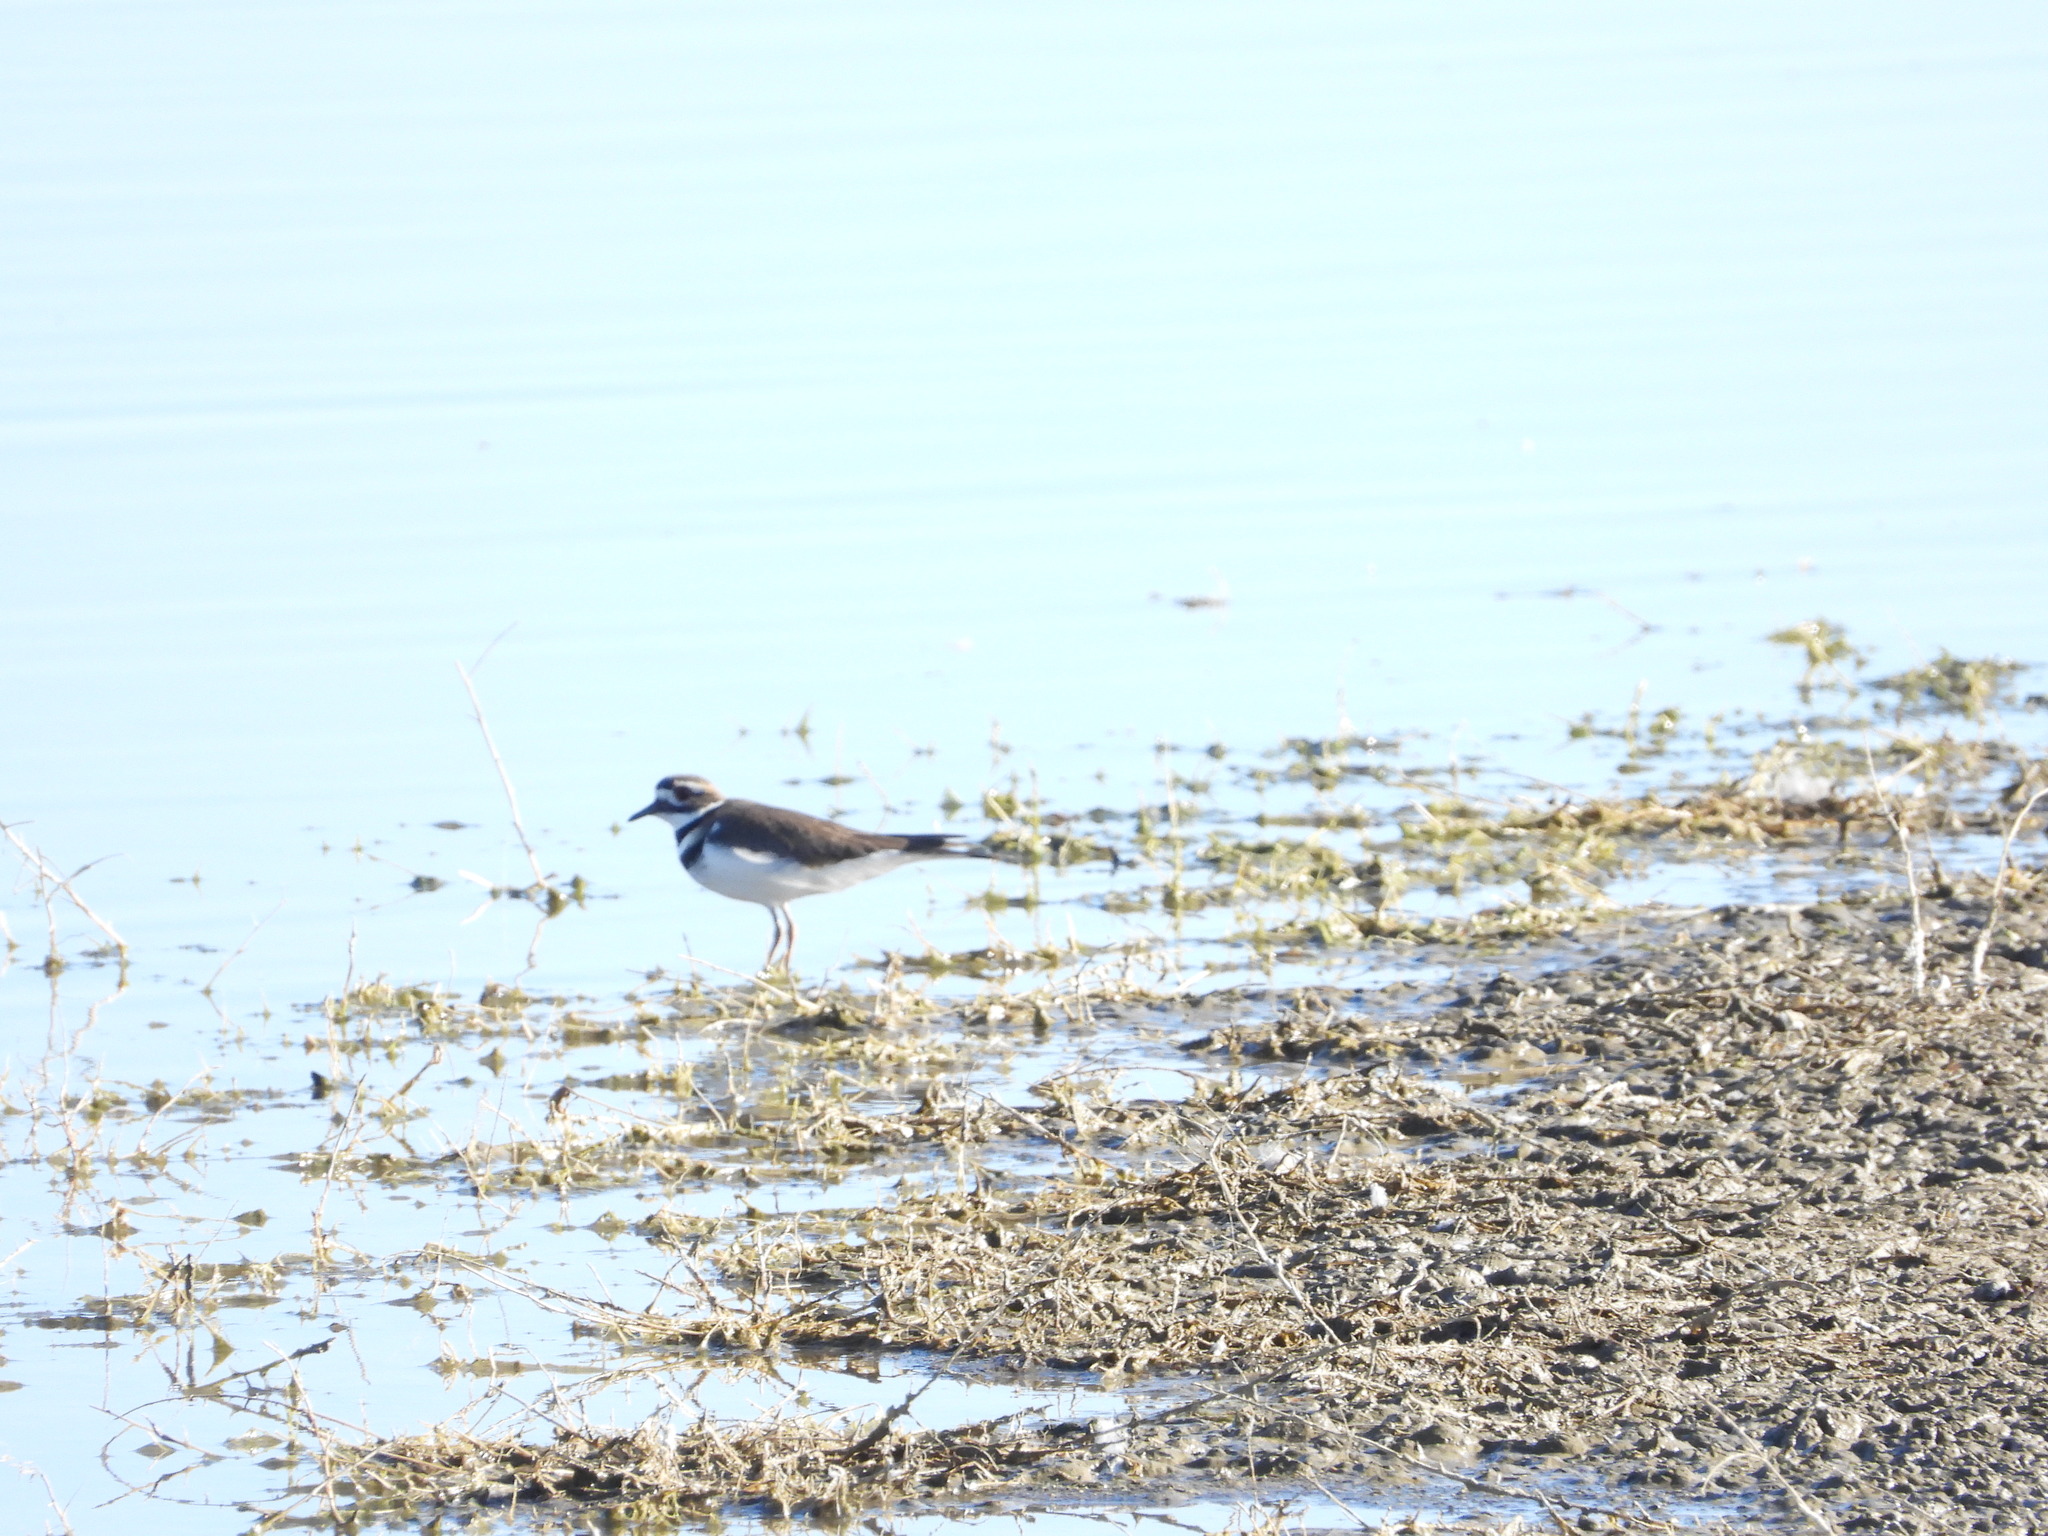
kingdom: Animalia
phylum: Chordata
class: Aves
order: Charadriiformes
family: Charadriidae
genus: Charadrius
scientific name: Charadrius vociferus
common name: Killdeer
